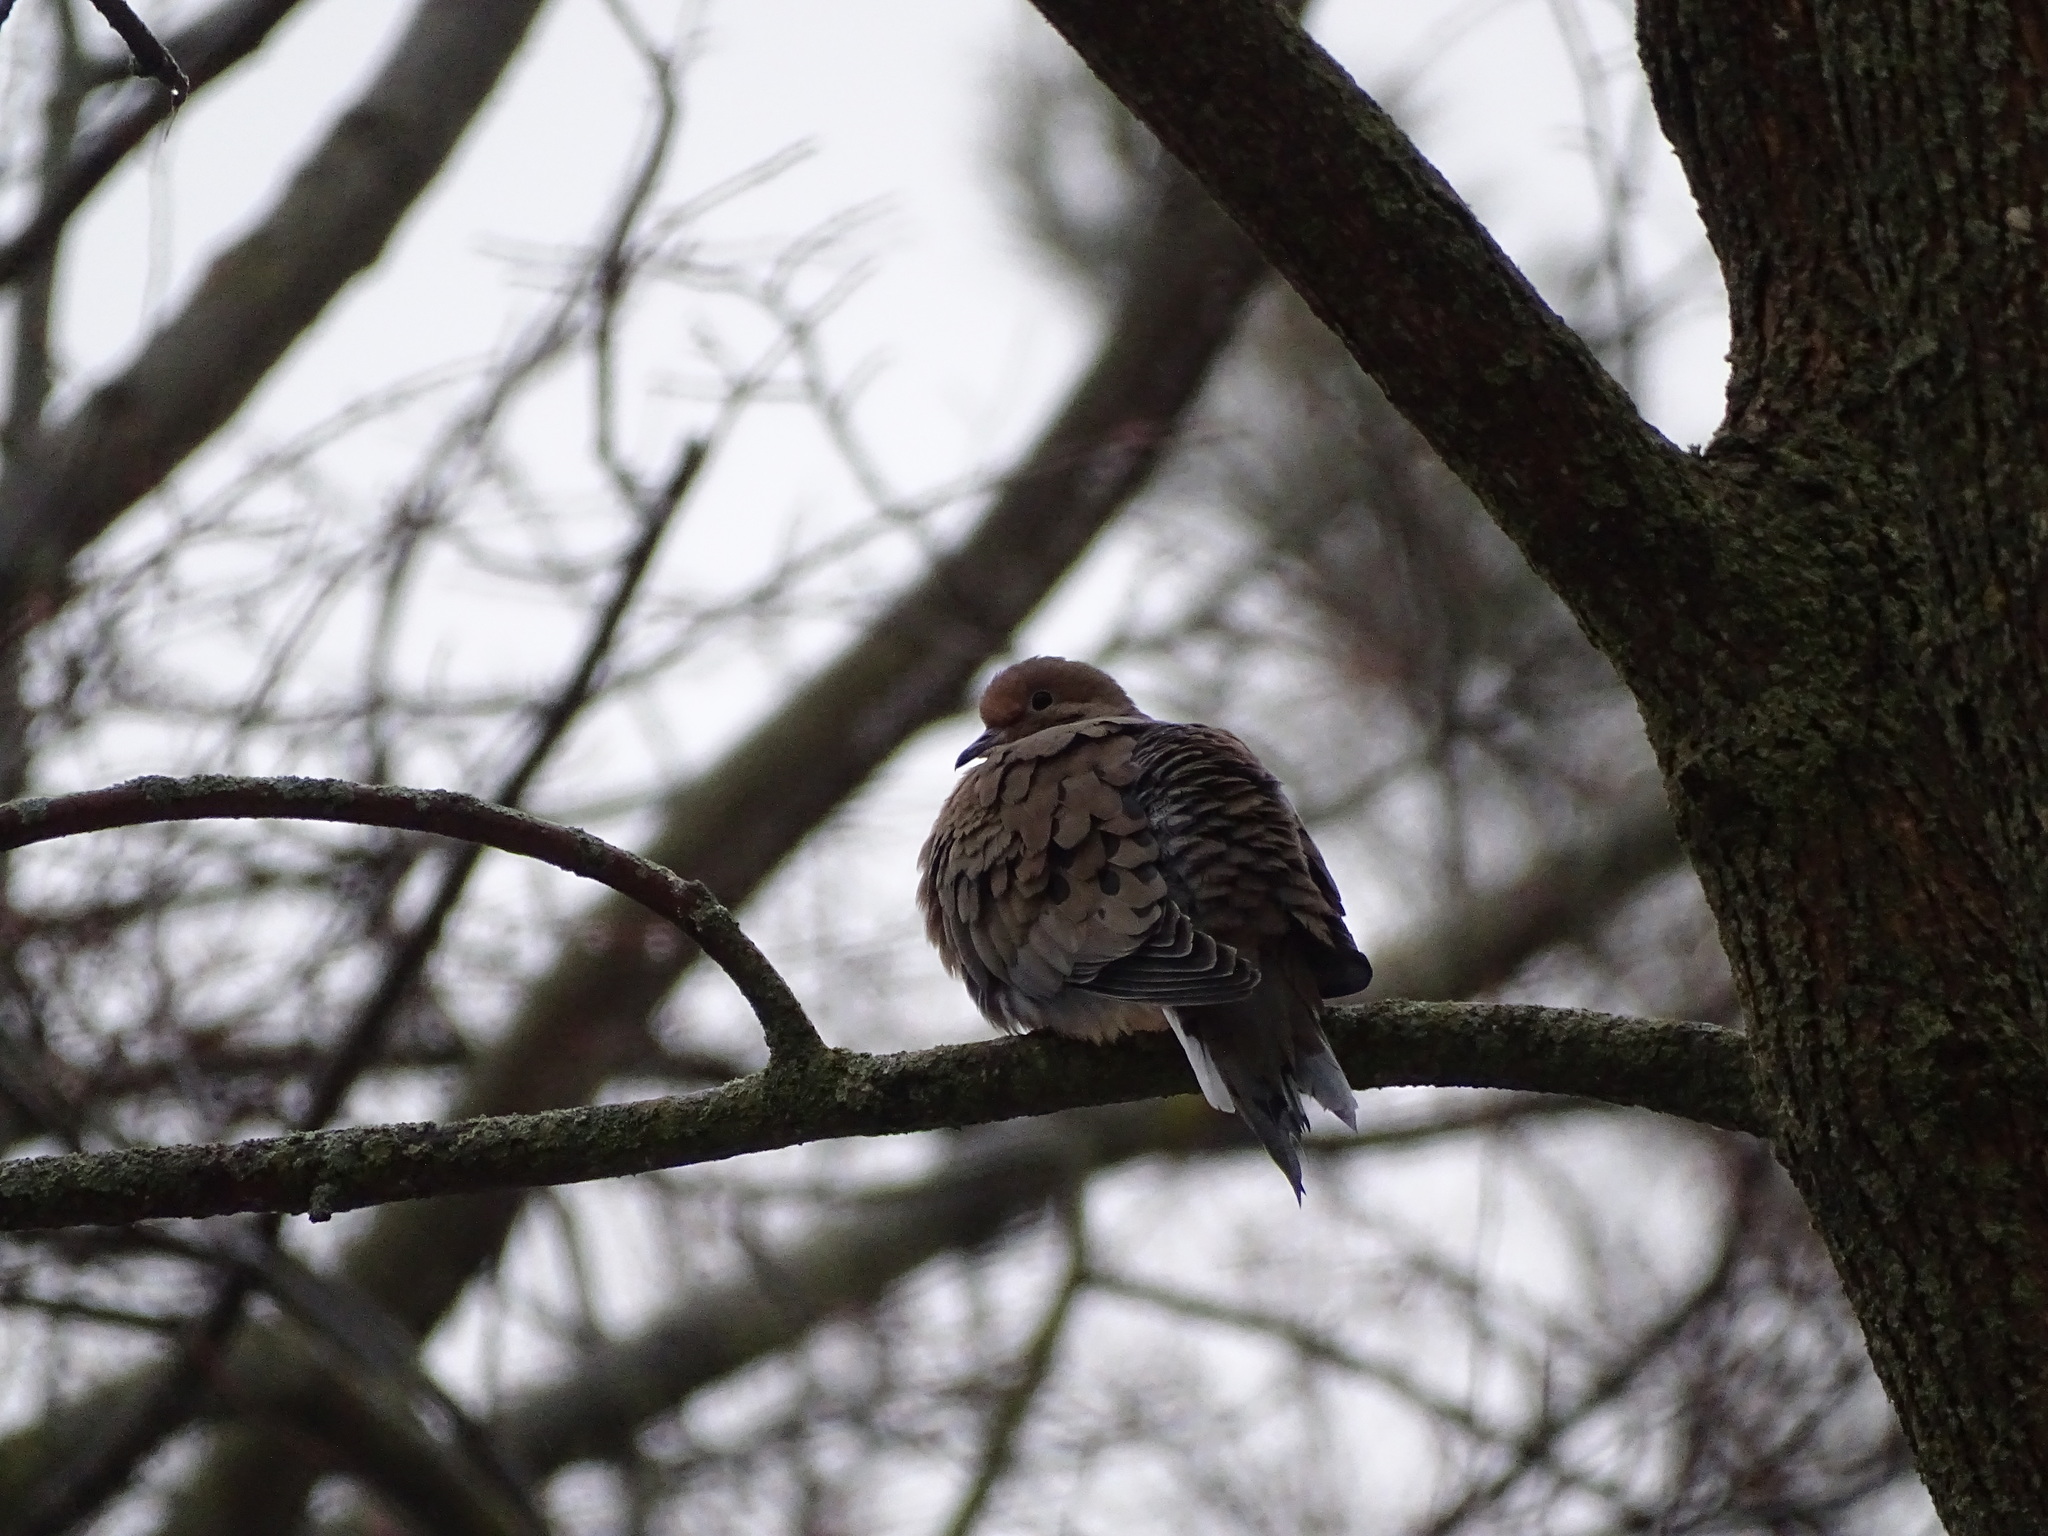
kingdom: Animalia
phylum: Chordata
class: Aves
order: Columbiformes
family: Columbidae
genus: Zenaida
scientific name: Zenaida macroura
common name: Mourning dove
